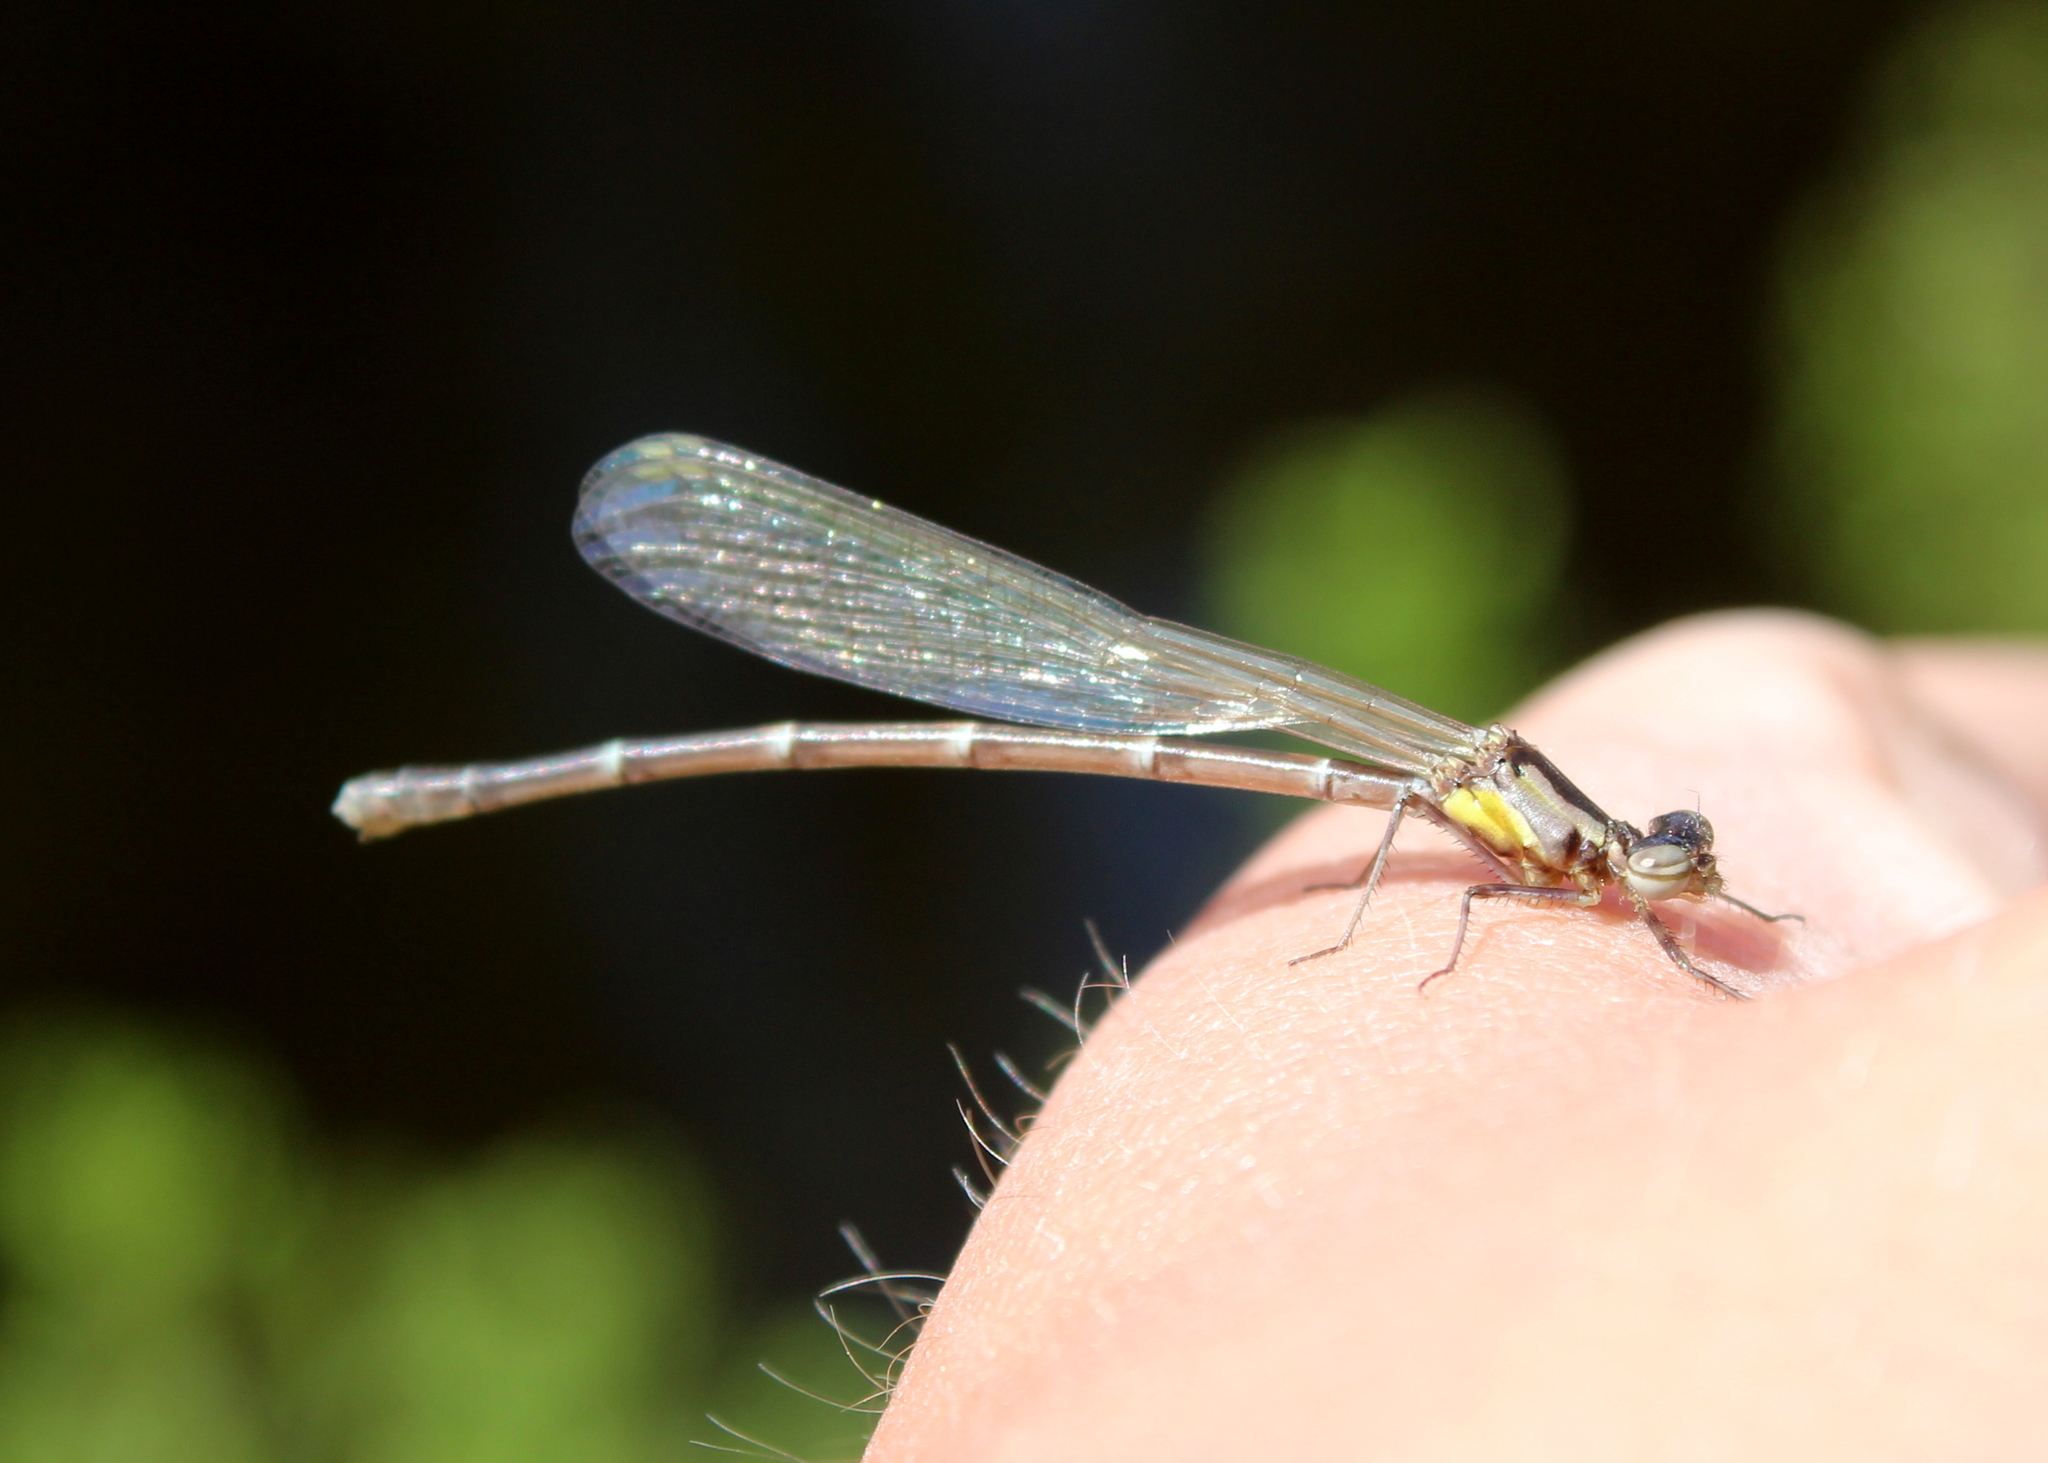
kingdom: Animalia
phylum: Arthropoda
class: Insecta
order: Odonata
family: Coenagrionidae
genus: Chromagrion
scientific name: Chromagrion conditum
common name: Aurora damsel
